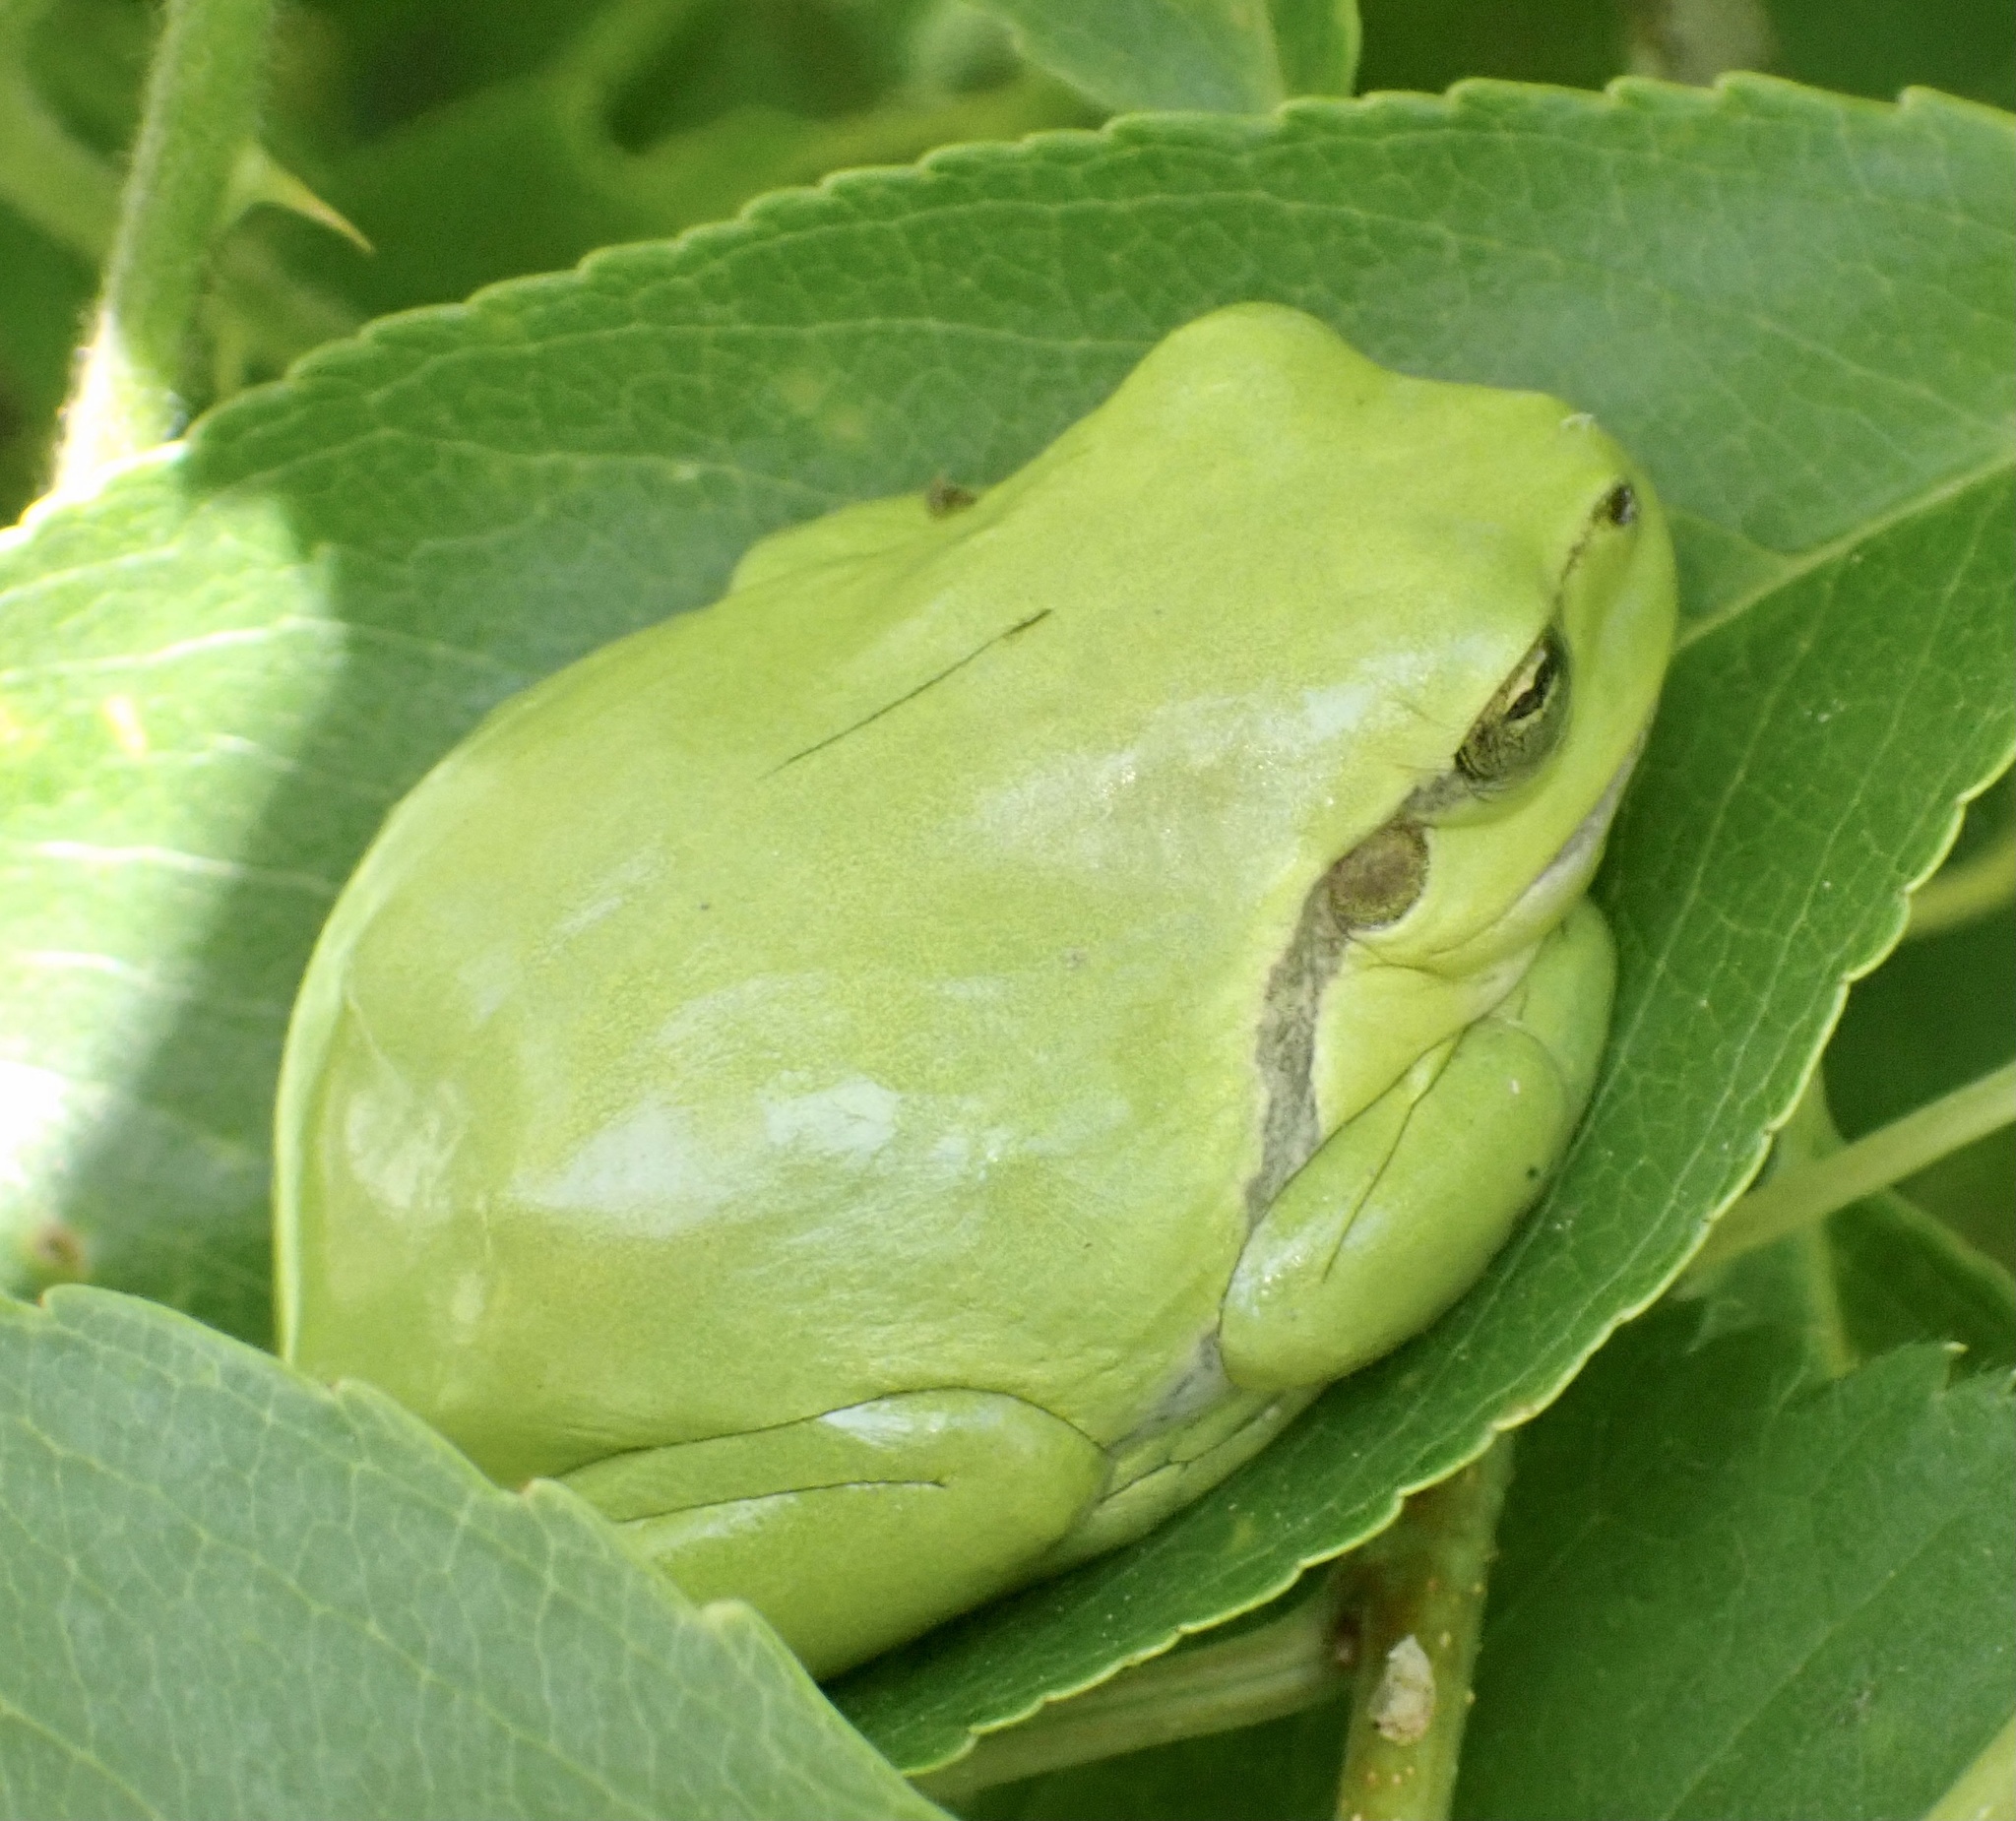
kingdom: Animalia
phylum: Chordata
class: Amphibia
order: Anura
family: Hylidae
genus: Hyla
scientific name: Hyla arborea
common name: Common tree frog
